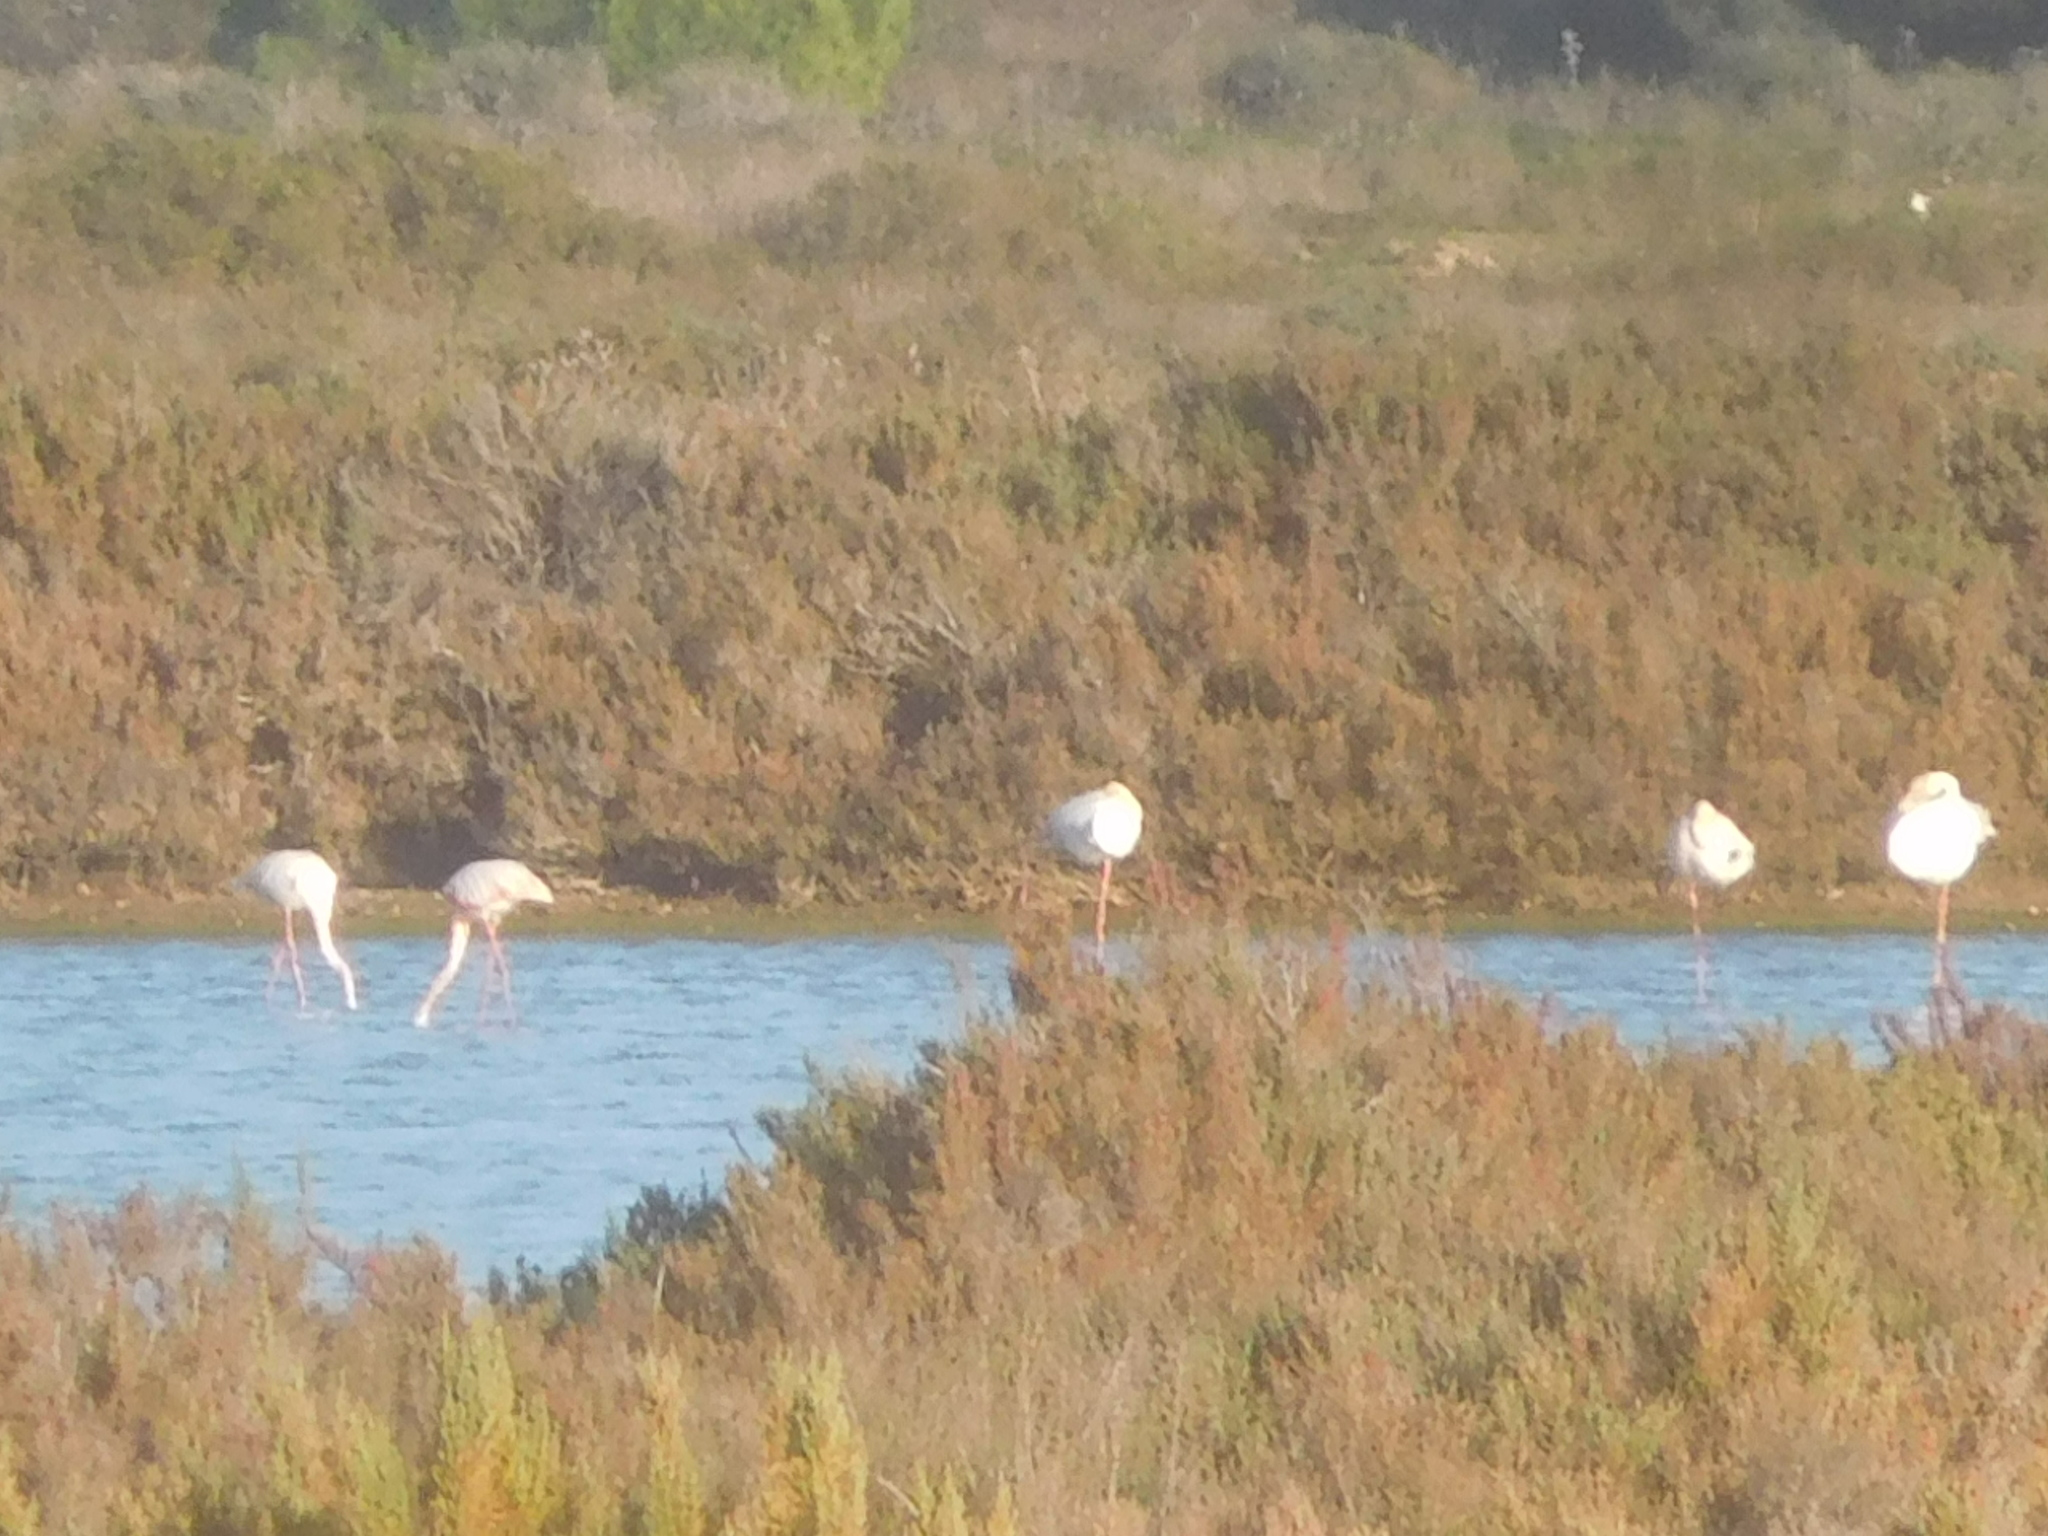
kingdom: Animalia
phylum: Chordata
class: Aves
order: Phoenicopteriformes
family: Phoenicopteridae
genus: Phoenicopterus
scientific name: Phoenicopterus roseus
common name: Greater flamingo
